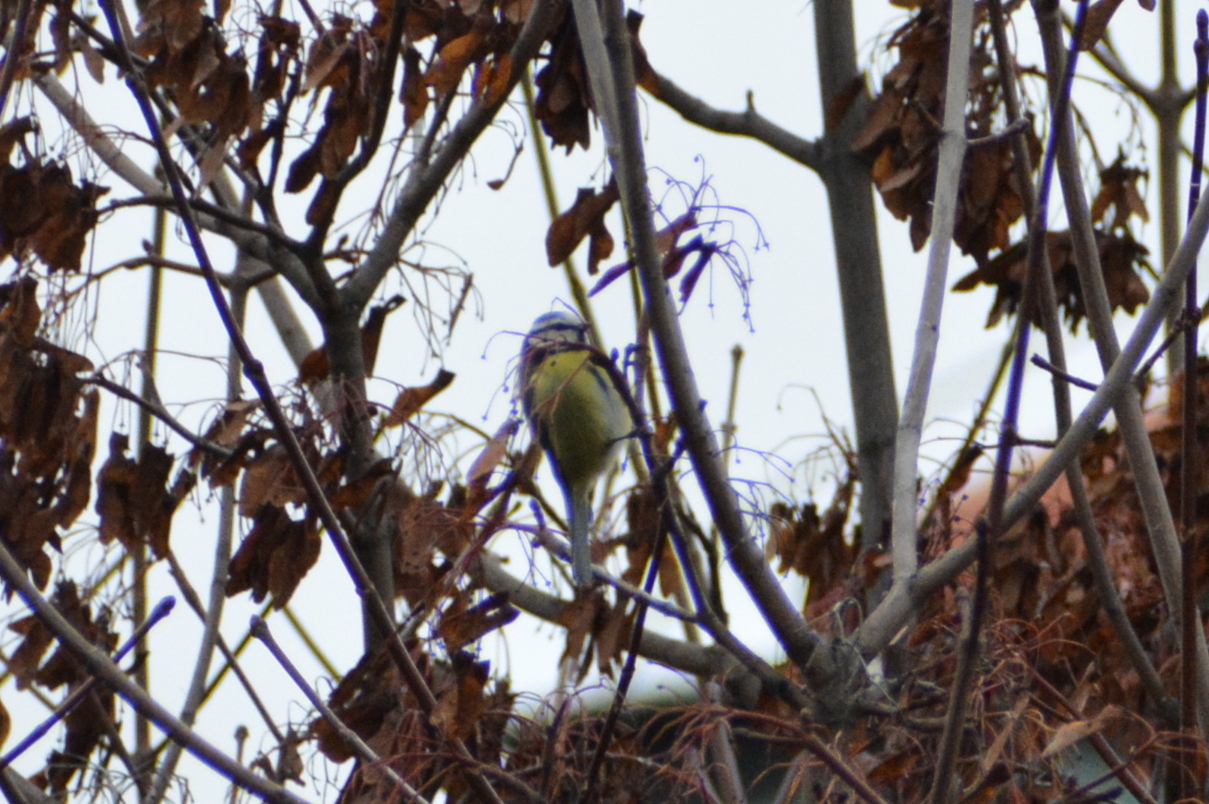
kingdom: Animalia
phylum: Chordata
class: Aves
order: Passeriformes
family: Paridae
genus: Cyanistes
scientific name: Cyanistes caeruleus
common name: Eurasian blue tit
